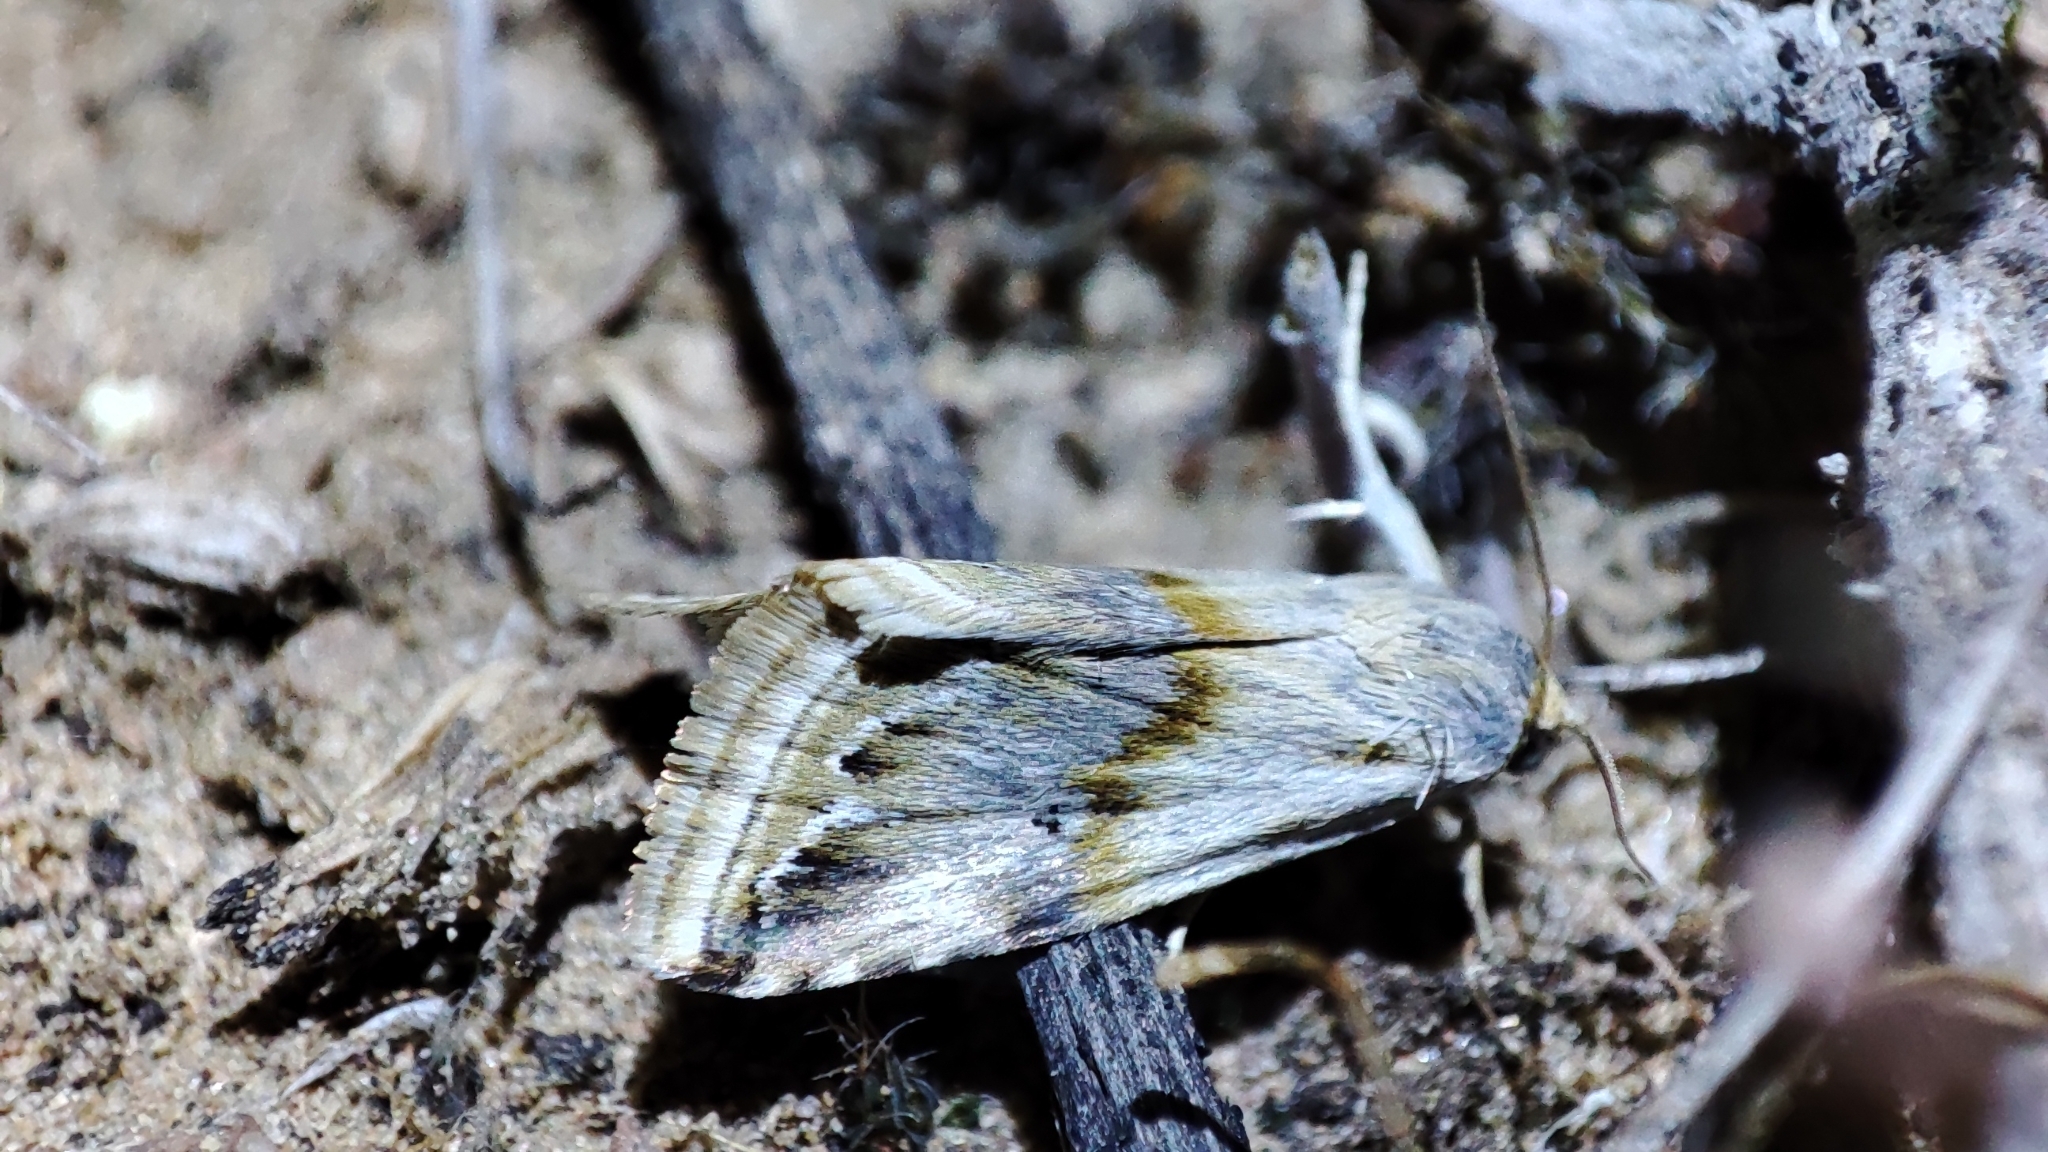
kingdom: Animalia
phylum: Arthropoda
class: Insecta
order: Lepidoptera
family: Noctuidae
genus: Eublemma
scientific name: Eublemma ostrina
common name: Purple marbled
